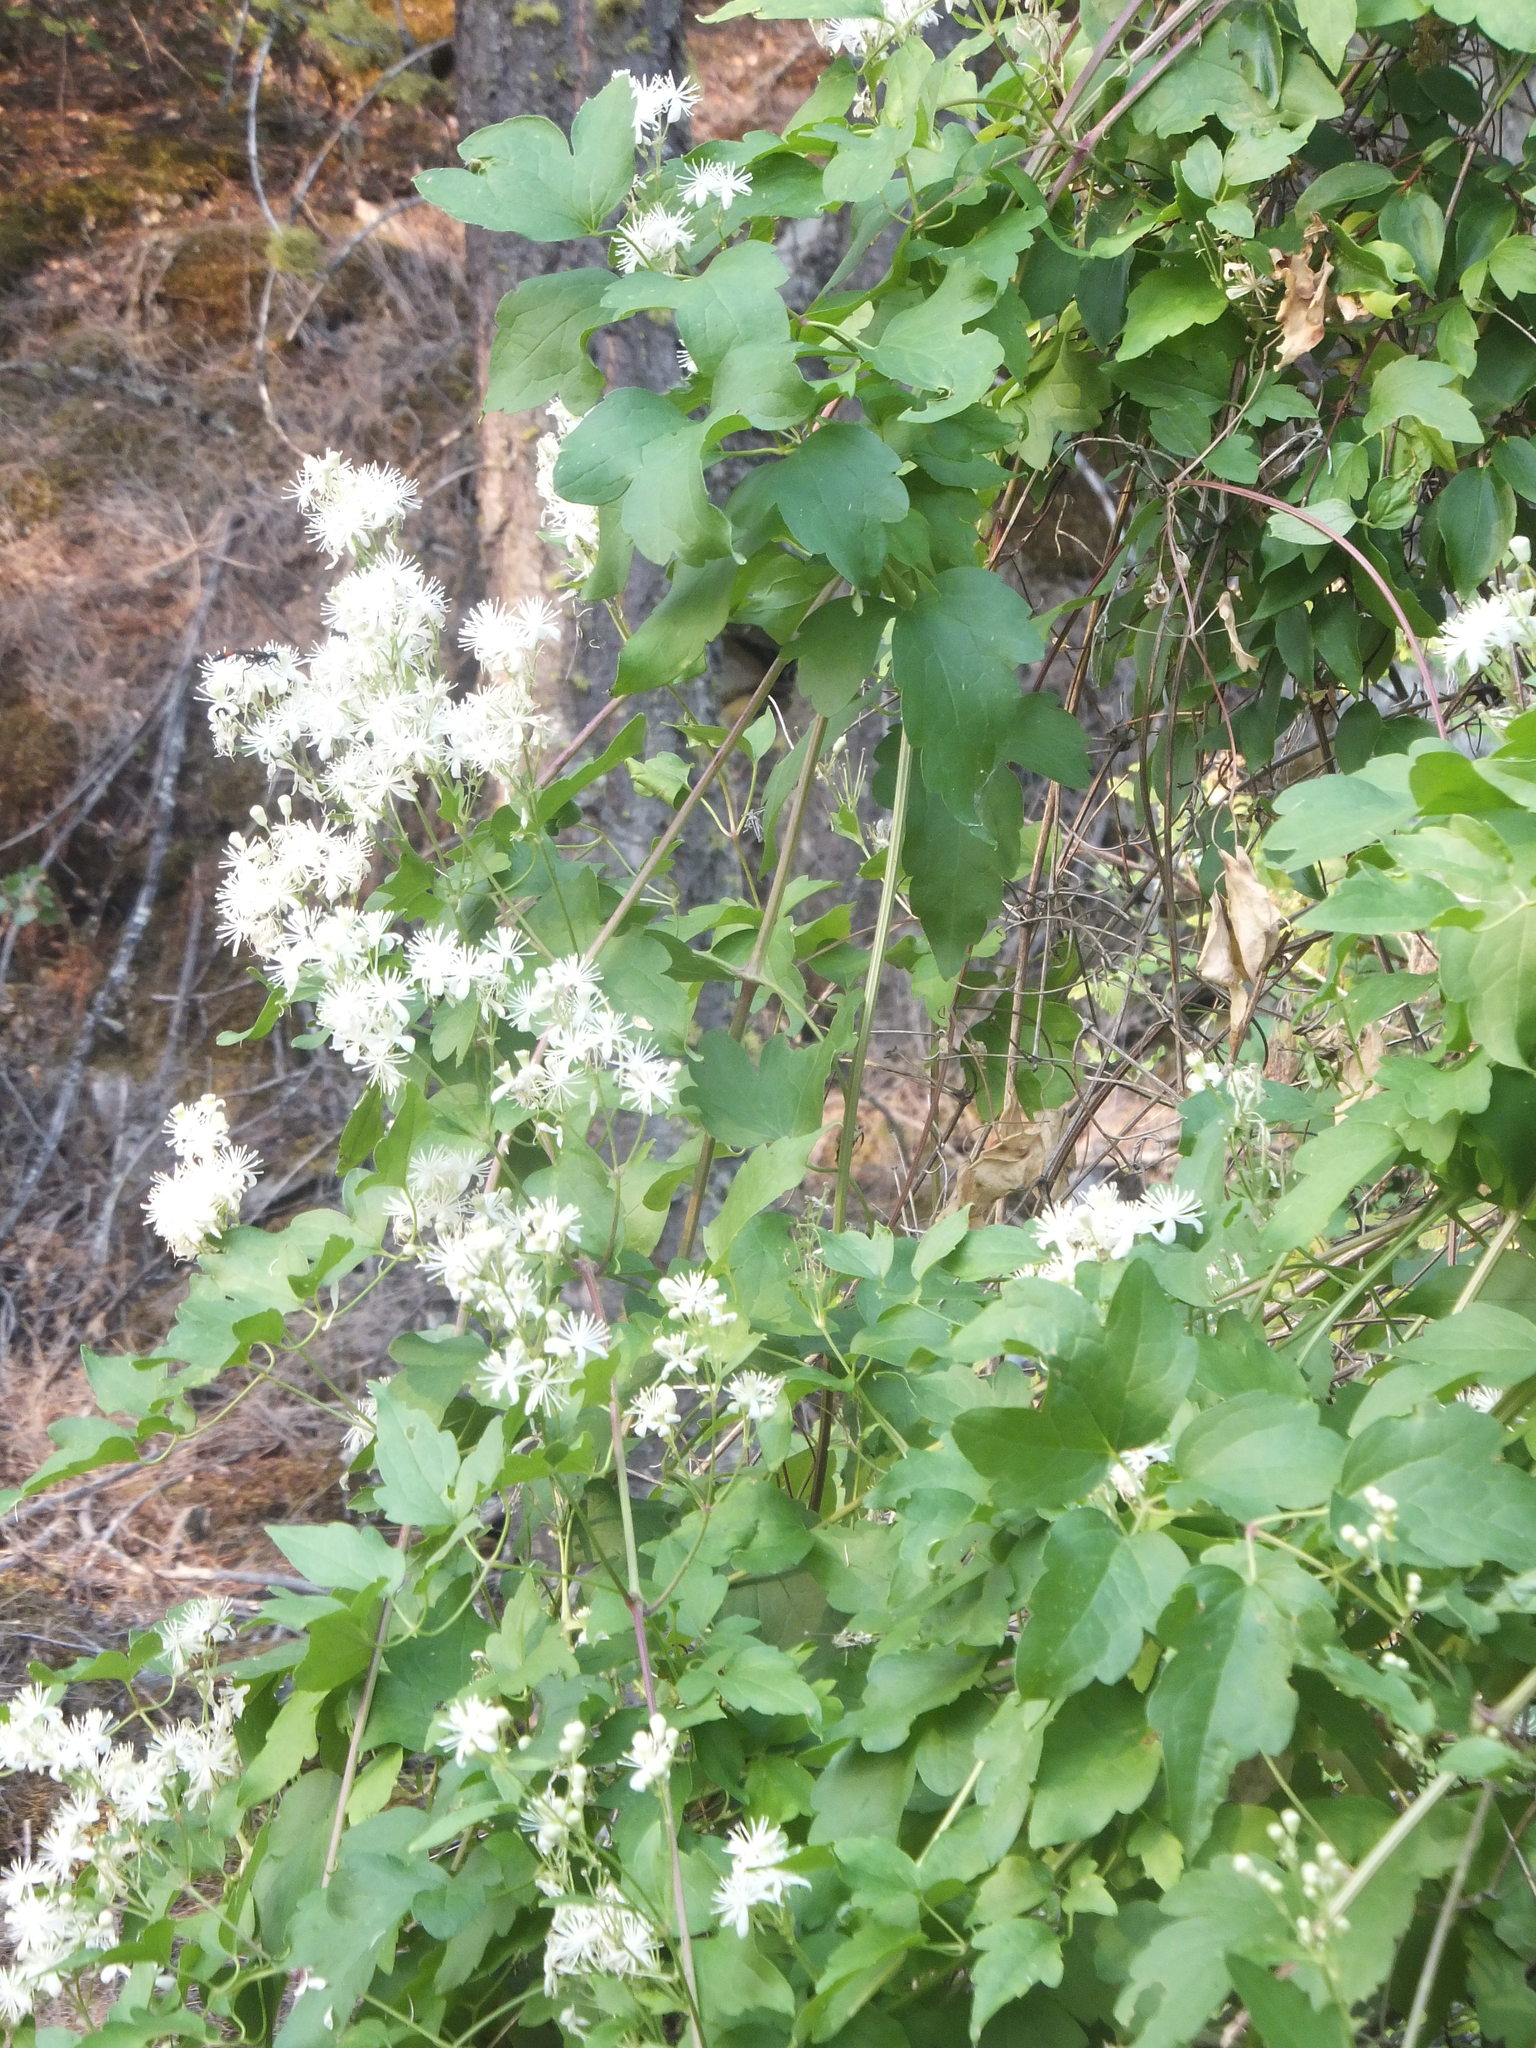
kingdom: Plantae
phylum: Tracheophyta
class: Magnoliopsida
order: Ranunculales
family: Ranunculaceae
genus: Clematis
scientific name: Clematis ligusticifolia
